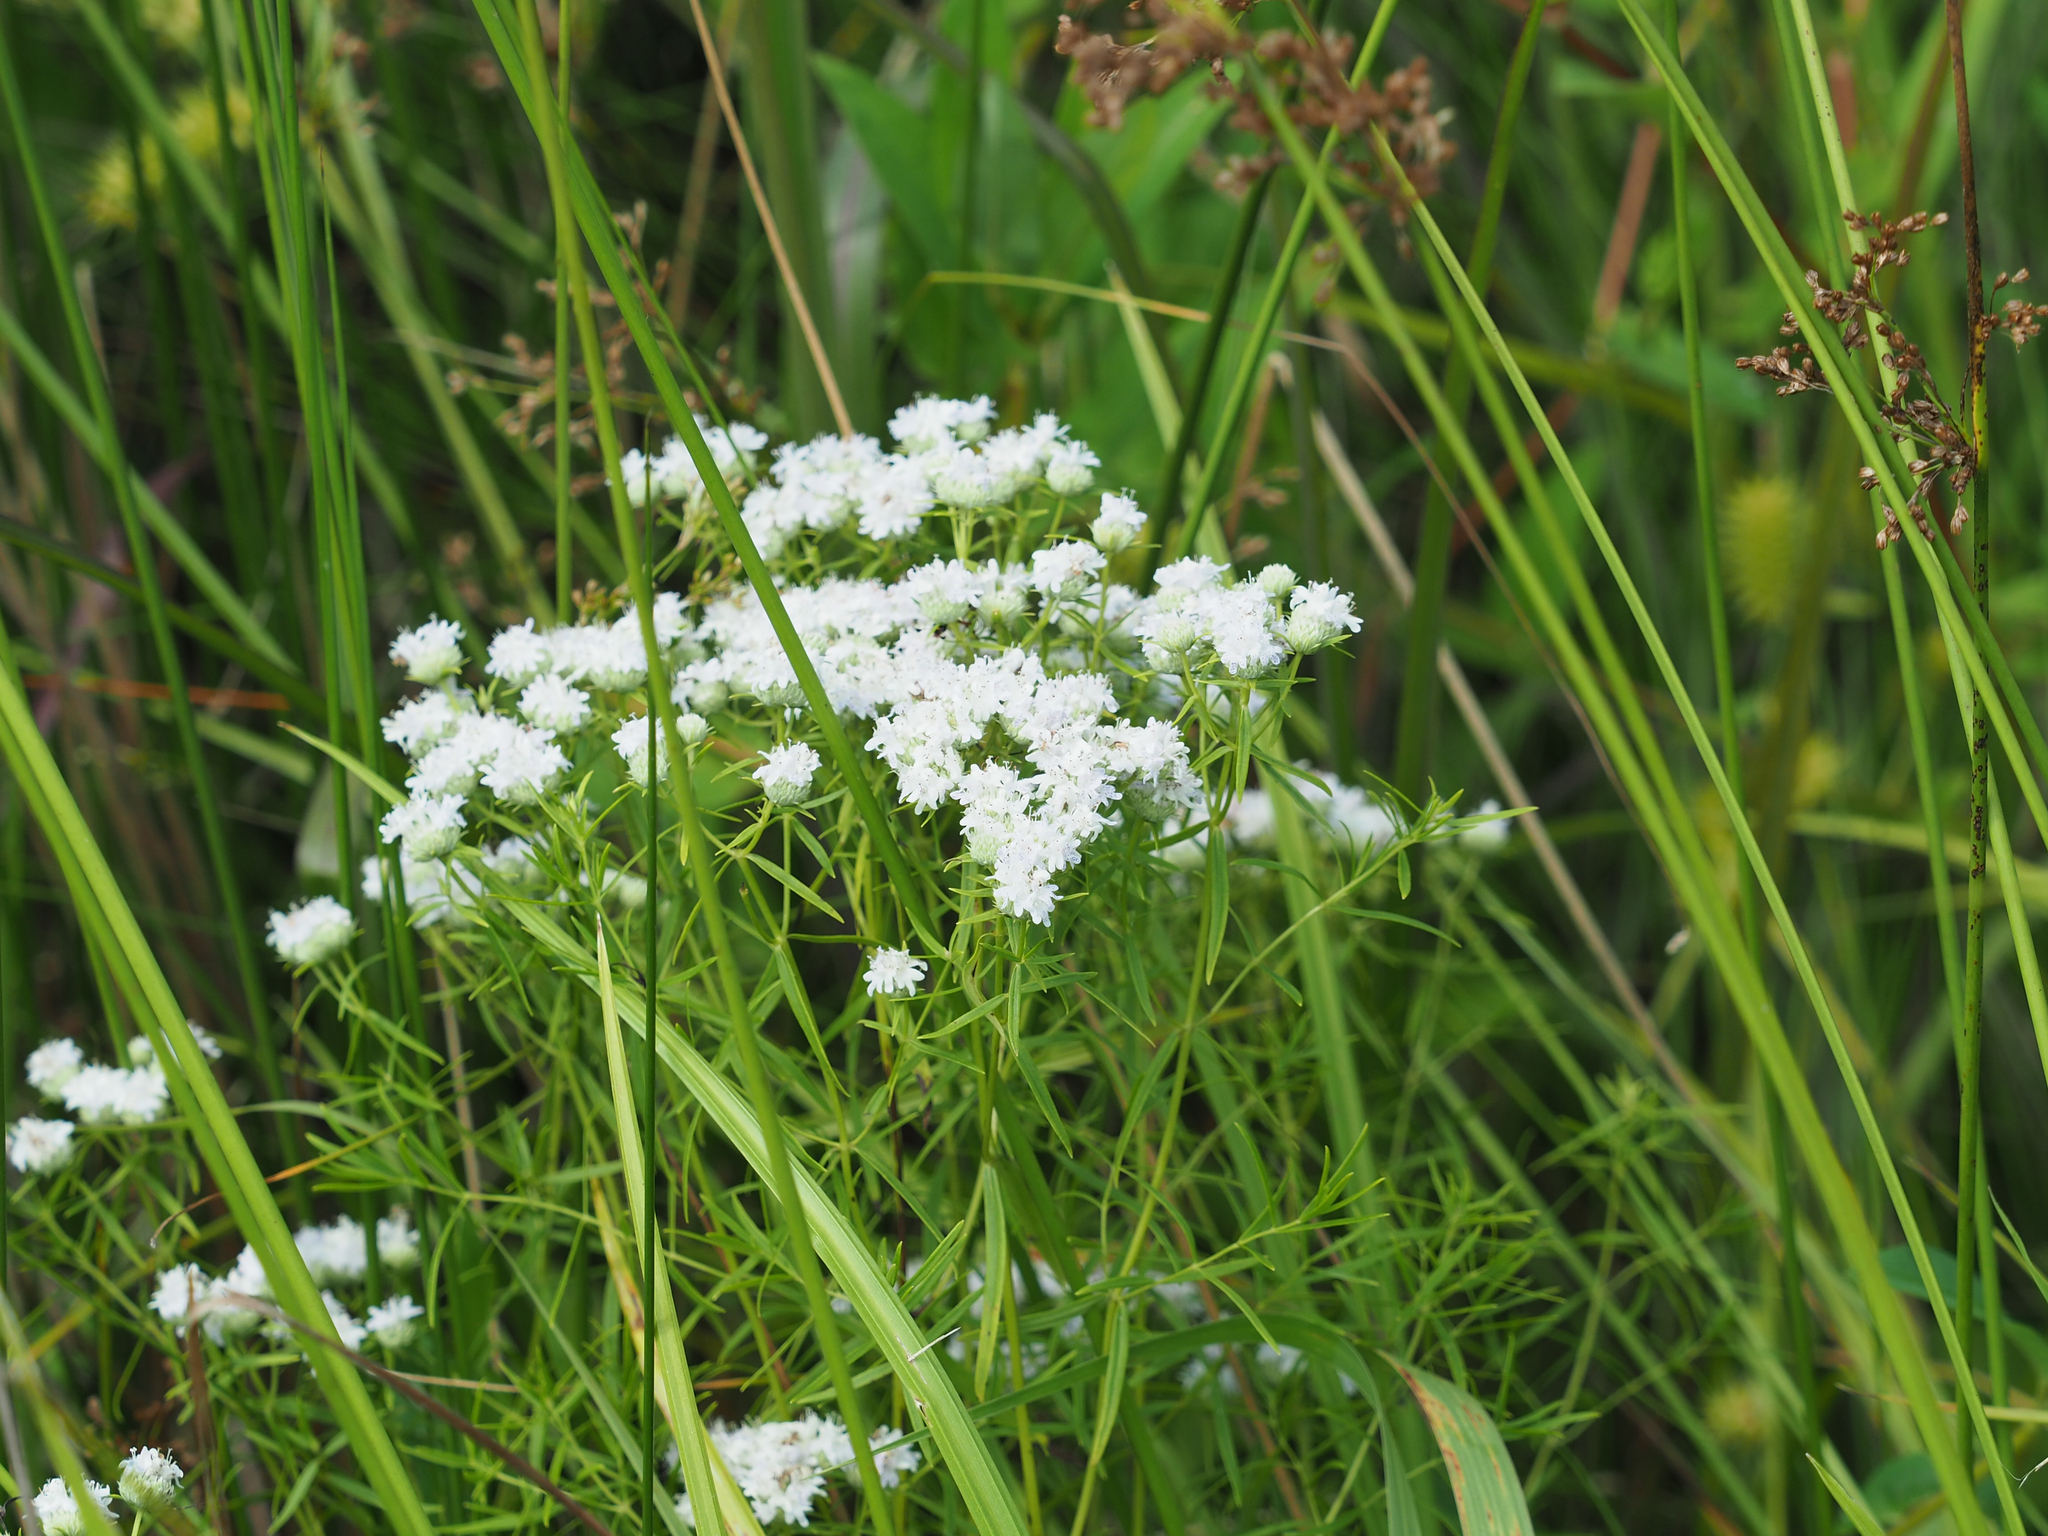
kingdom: Plantae
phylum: Tracheophyta
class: Magnoliopsida
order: Lamiales
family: Lamiaceae
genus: Pycnanthemum
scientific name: Pycnanthemum tenuifolium
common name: Narrow-leaf mountain-mint
